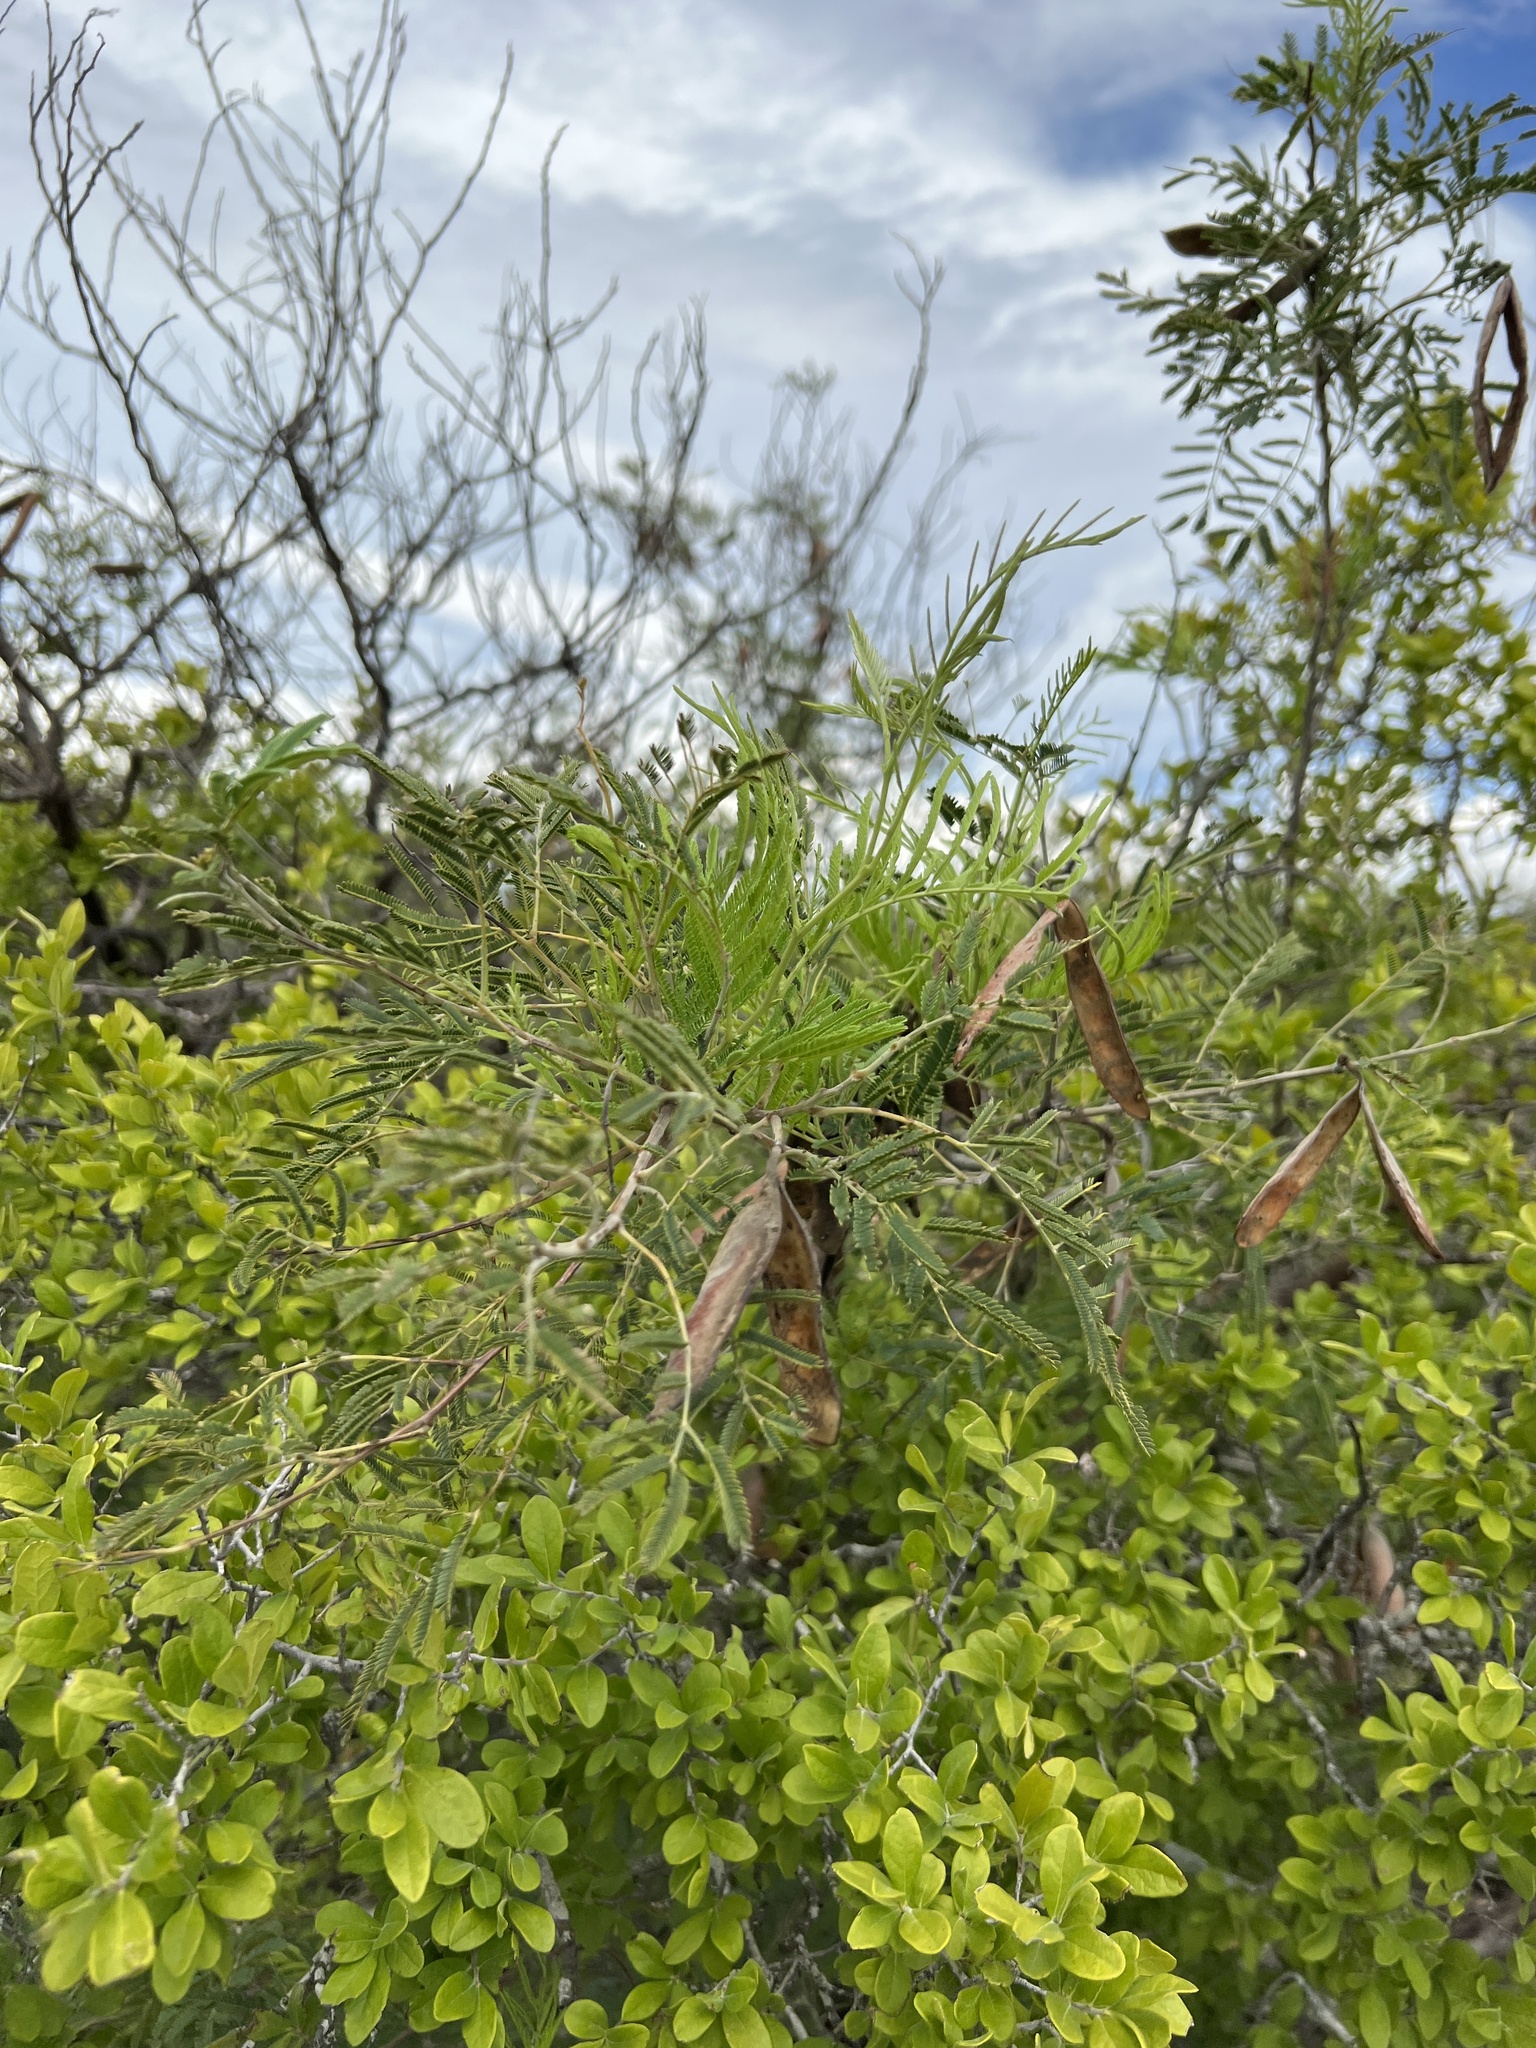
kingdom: Plantae
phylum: Tracheophyta
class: Magnoliopsida
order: Fabales
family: Fabaceae
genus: Senegalia
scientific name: Senegalia berlandieri
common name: Berlandier acacia
